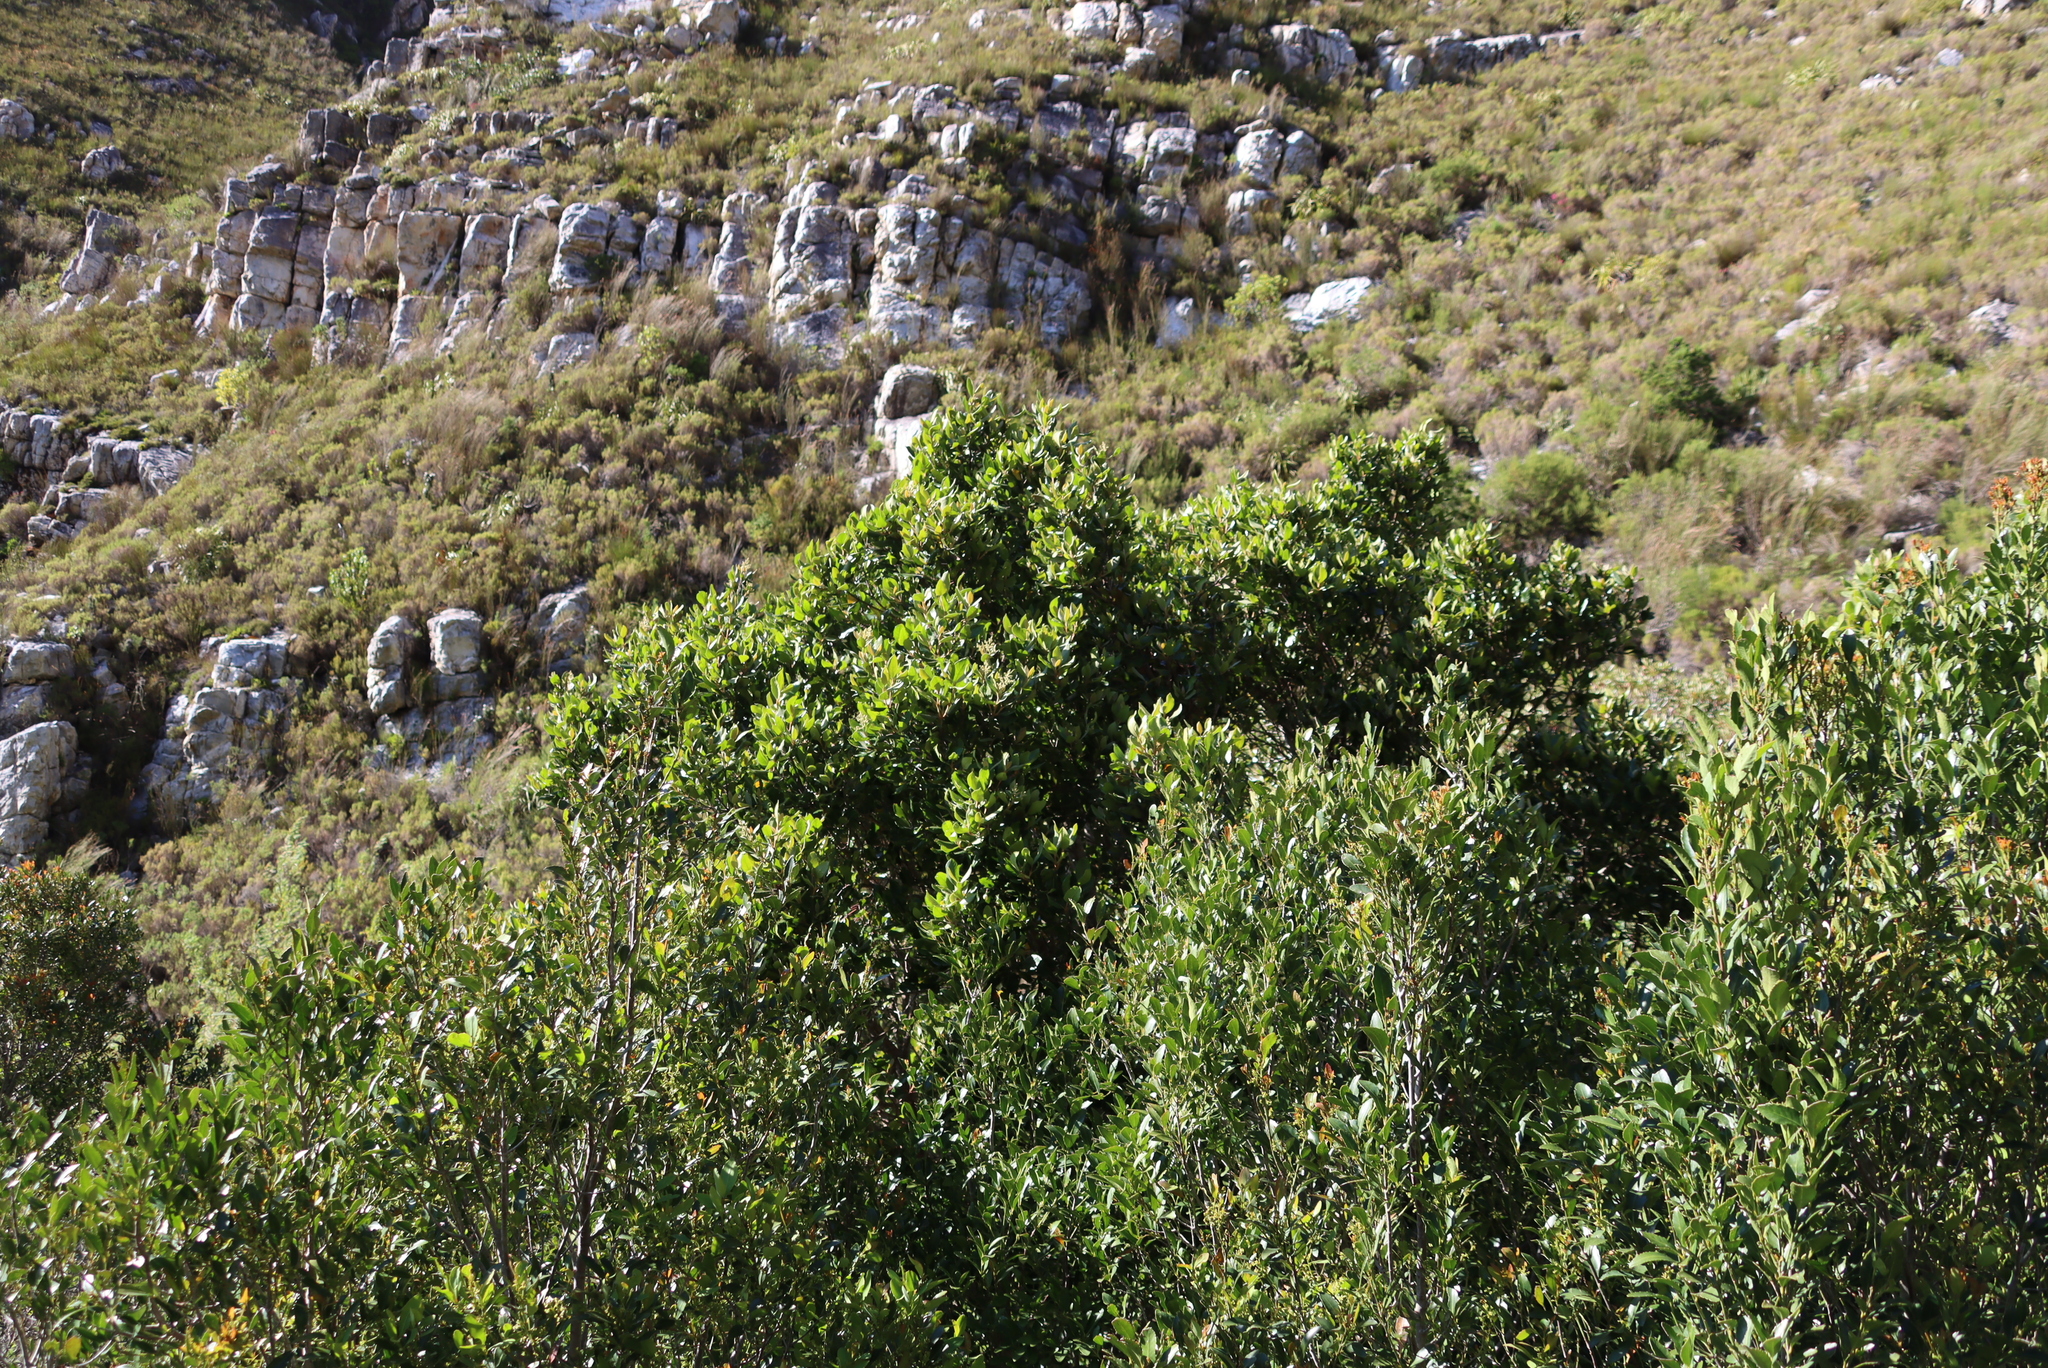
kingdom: Plantae
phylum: Tracheophyta
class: Magnoliopsida
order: Cornales
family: Curtisiaceae
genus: Curtisia
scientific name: Curtisia dentata
